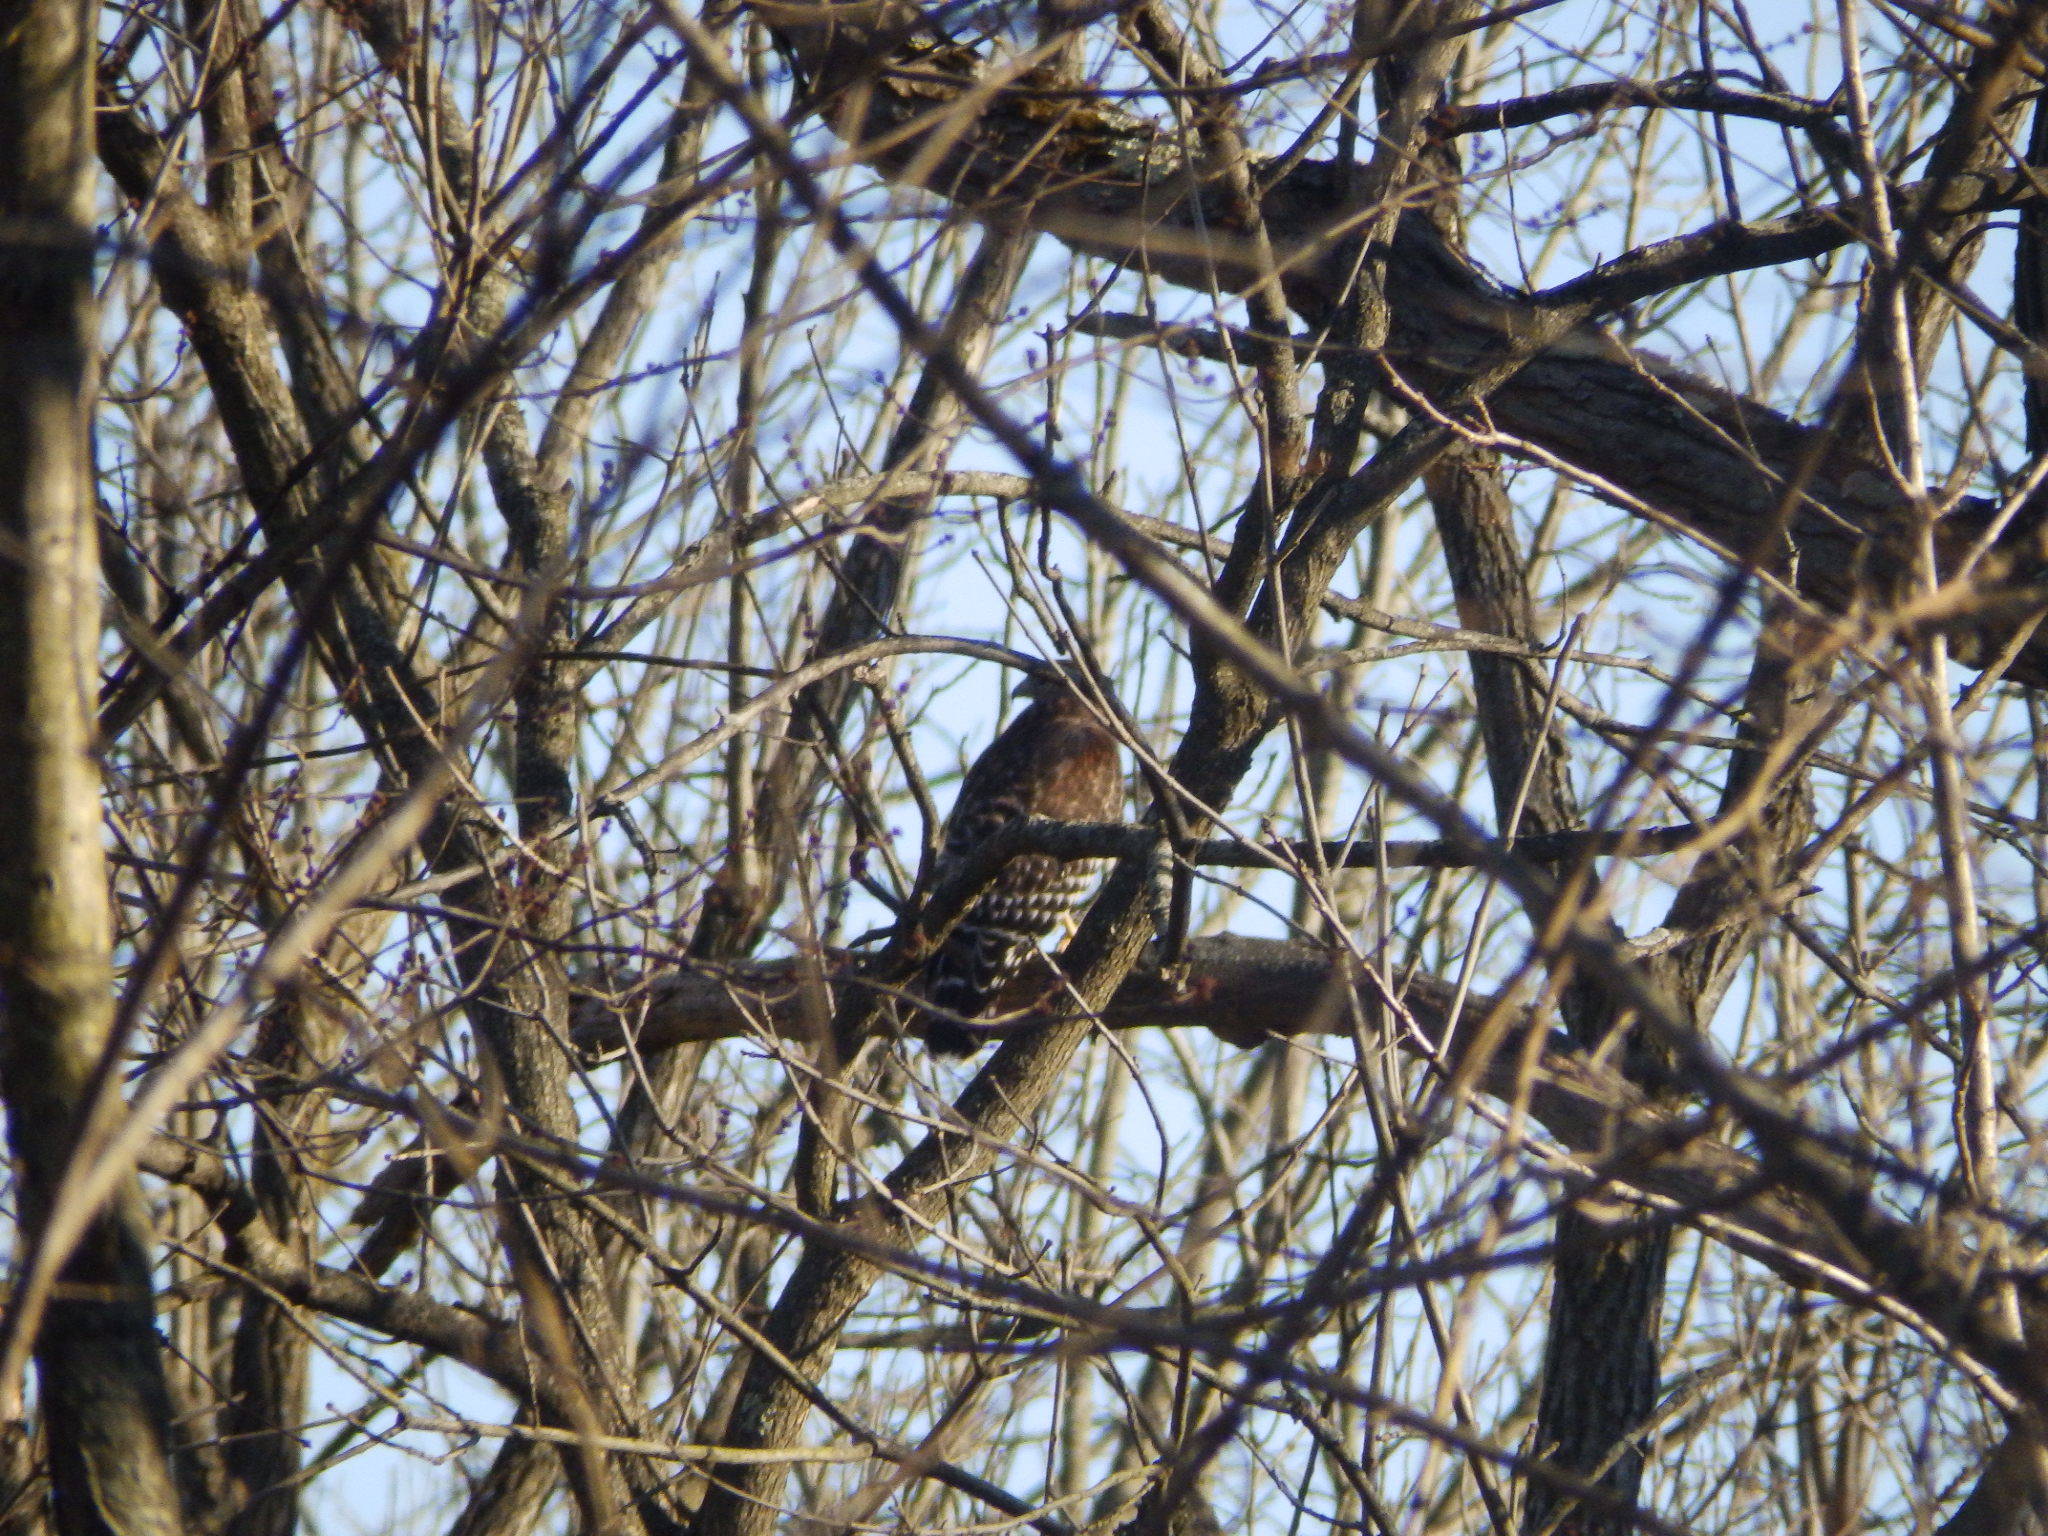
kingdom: Animalia
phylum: Chordata
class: Aves
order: Accipitriformes
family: Accipitridae
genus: Buteo
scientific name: Buteo lineatus
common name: Red-shouldered hawk
